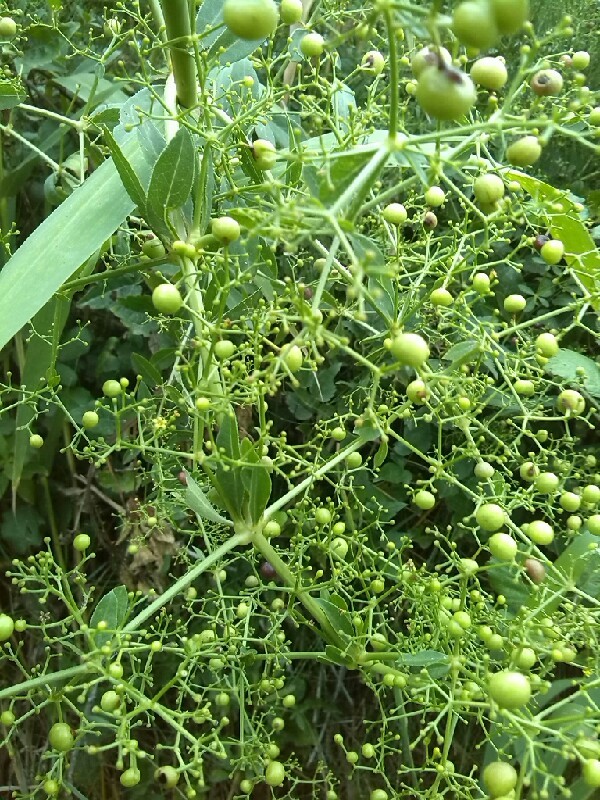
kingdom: Plantae
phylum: Tracheophyta
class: Magnoliopsida
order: Gentianales
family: Rubiaceae
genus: Rubia
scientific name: Rubia tinctorum
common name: Dyer's madder
